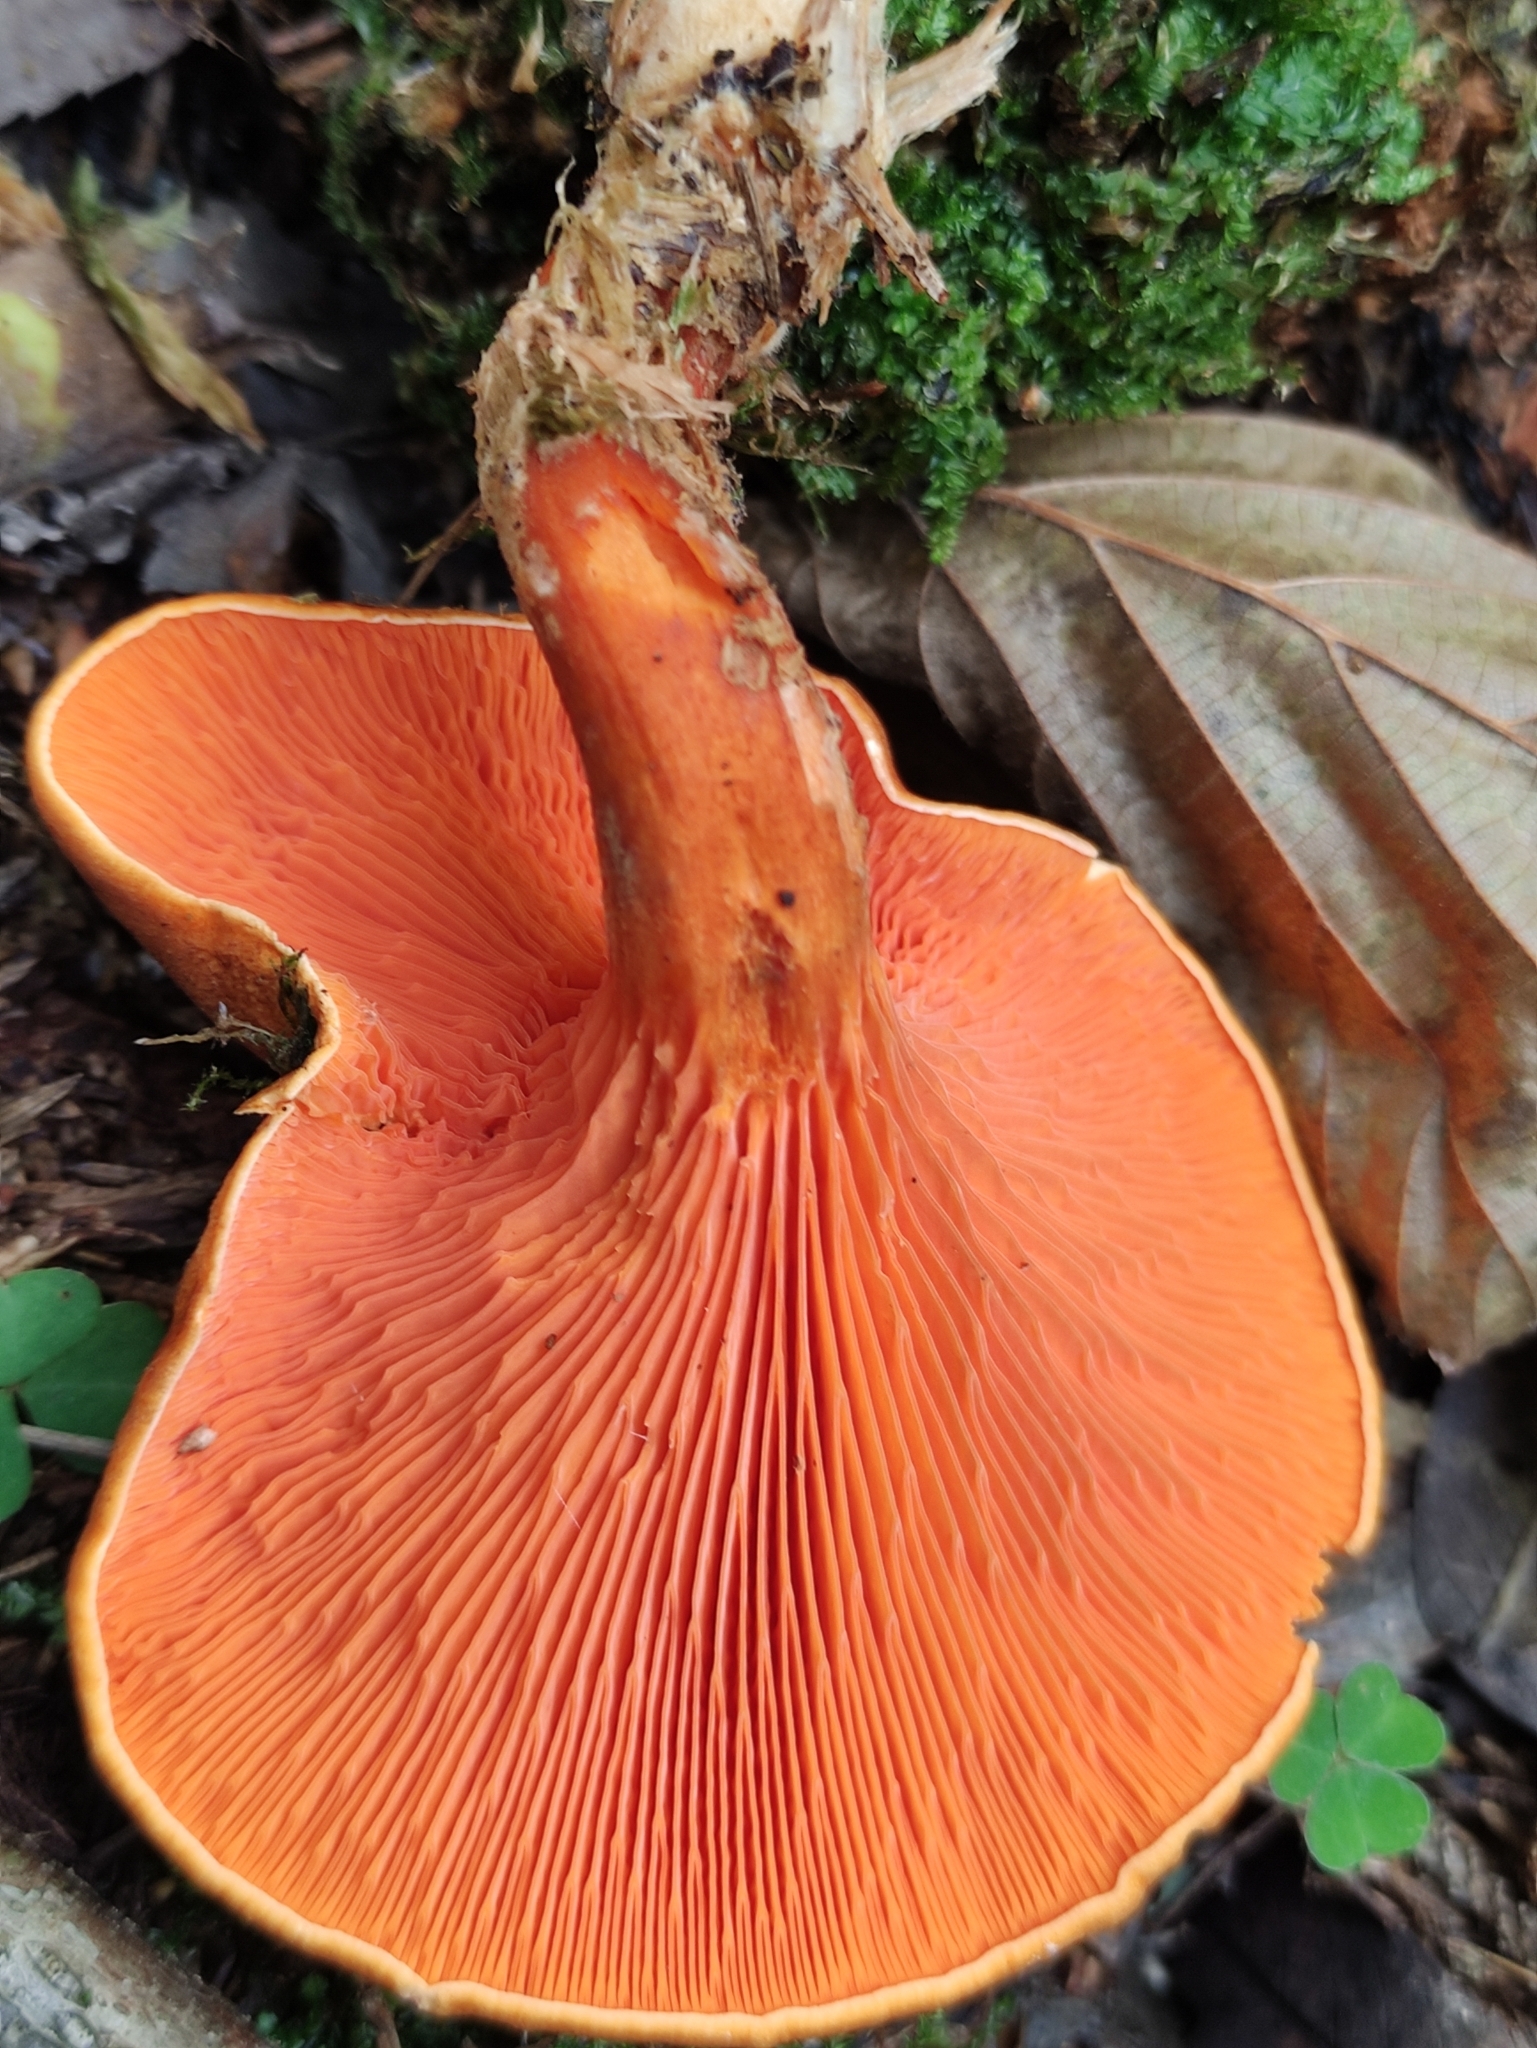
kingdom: Fungi
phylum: Basidiomycota
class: Agaricomycetes
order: Boletales
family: Hygrophoropsidaceae
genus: Hygrophoropsis
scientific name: Hygrophoropsis aurantiaca
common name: False chanterelle
